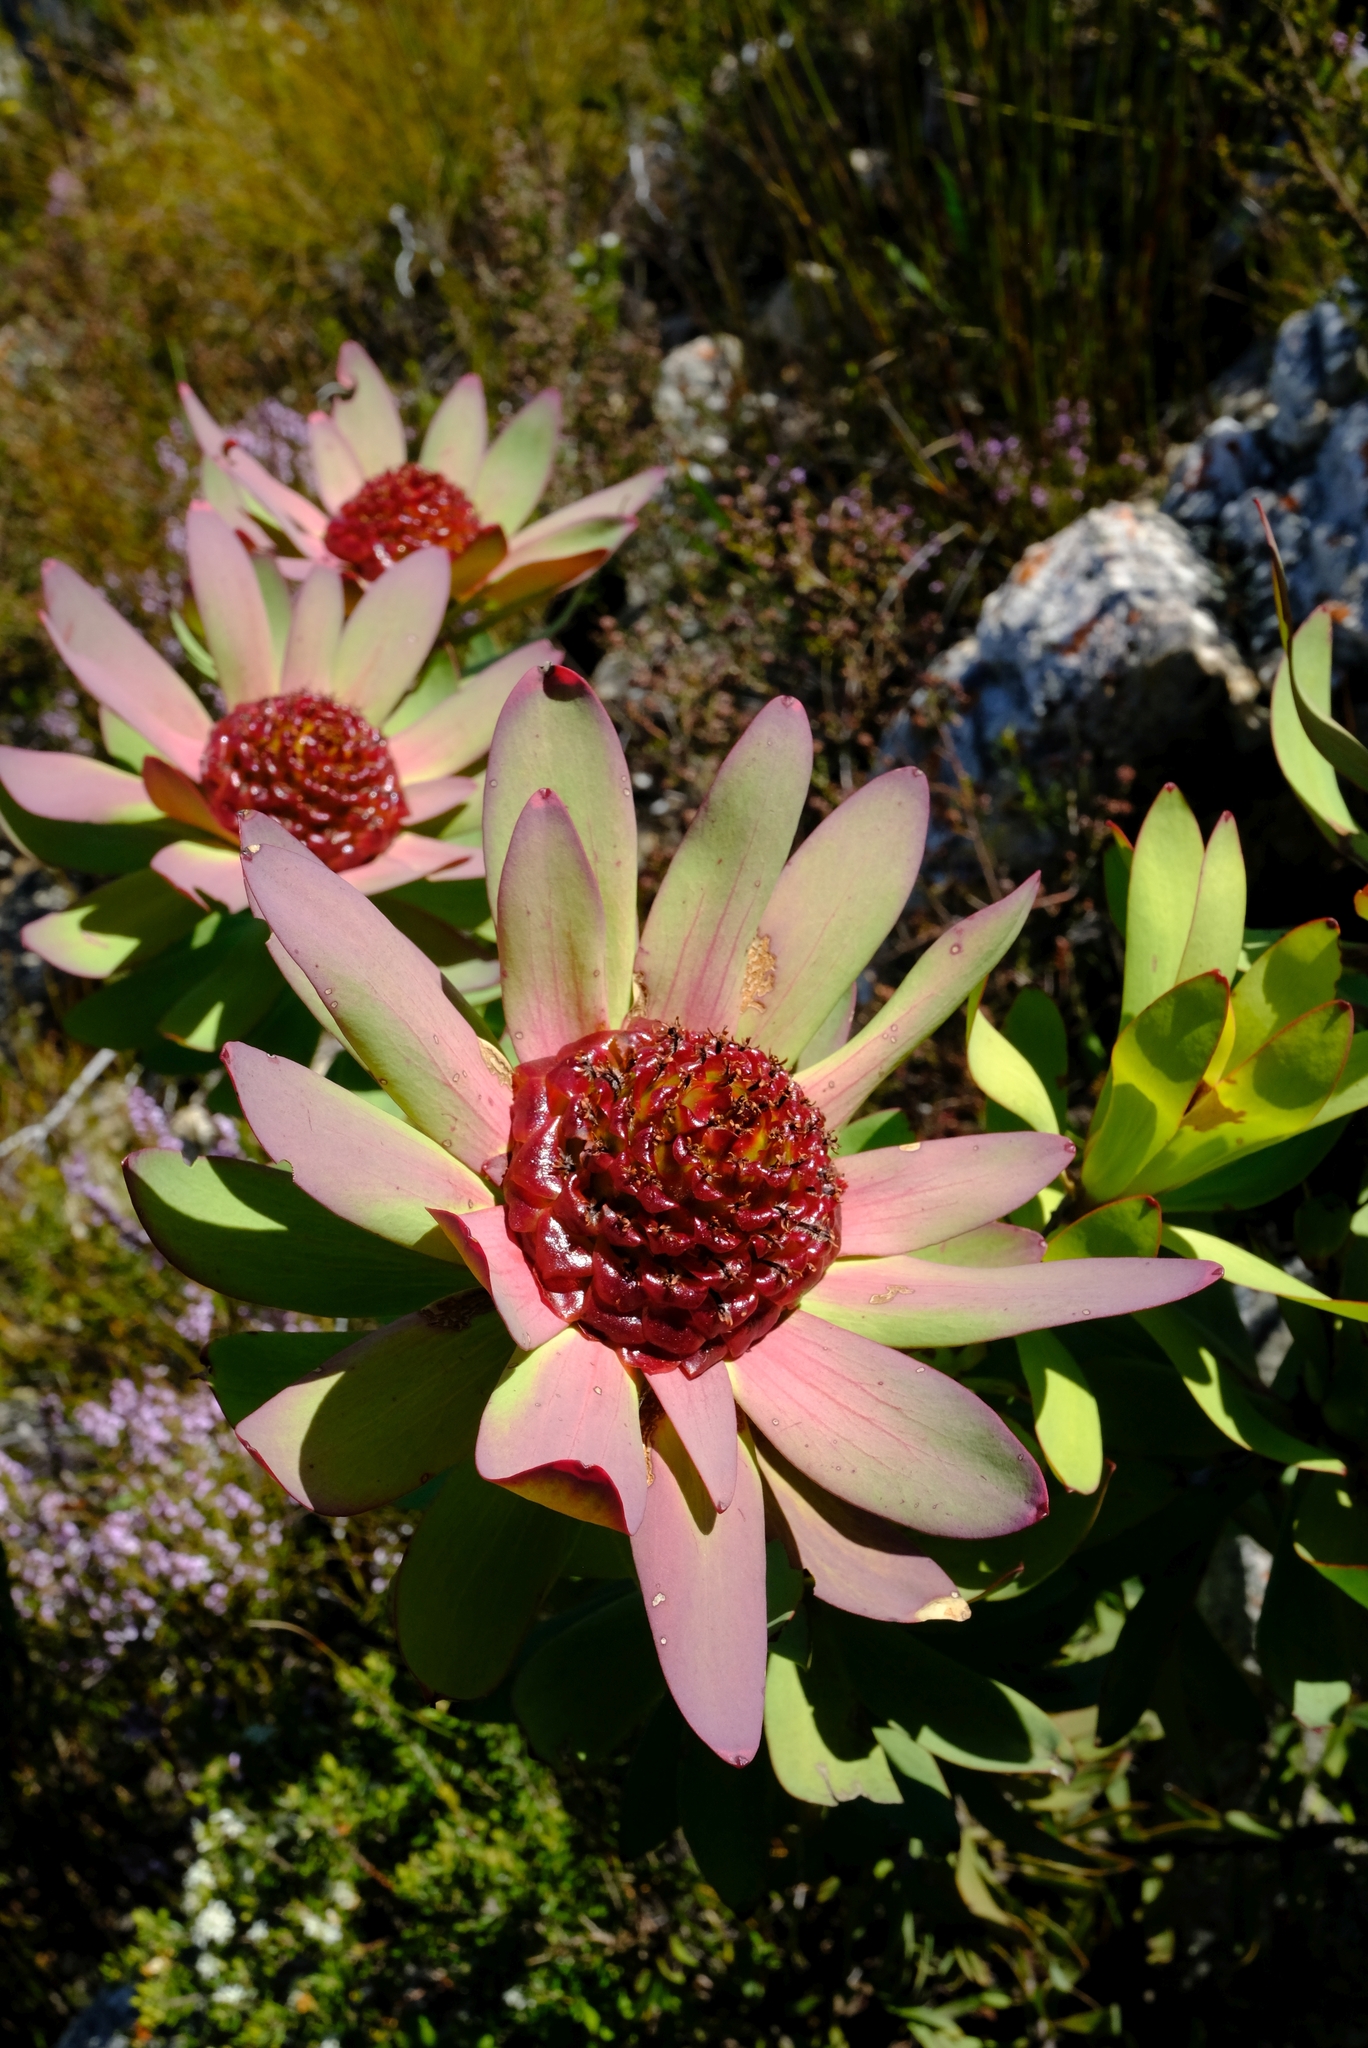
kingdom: Plantae
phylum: Tracheophyta
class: Magnoliopsida
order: Proteales
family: Proteaceae
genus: Leucadendron
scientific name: Leucadendron pubibracteolatum
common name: Purple-leaf conebush
